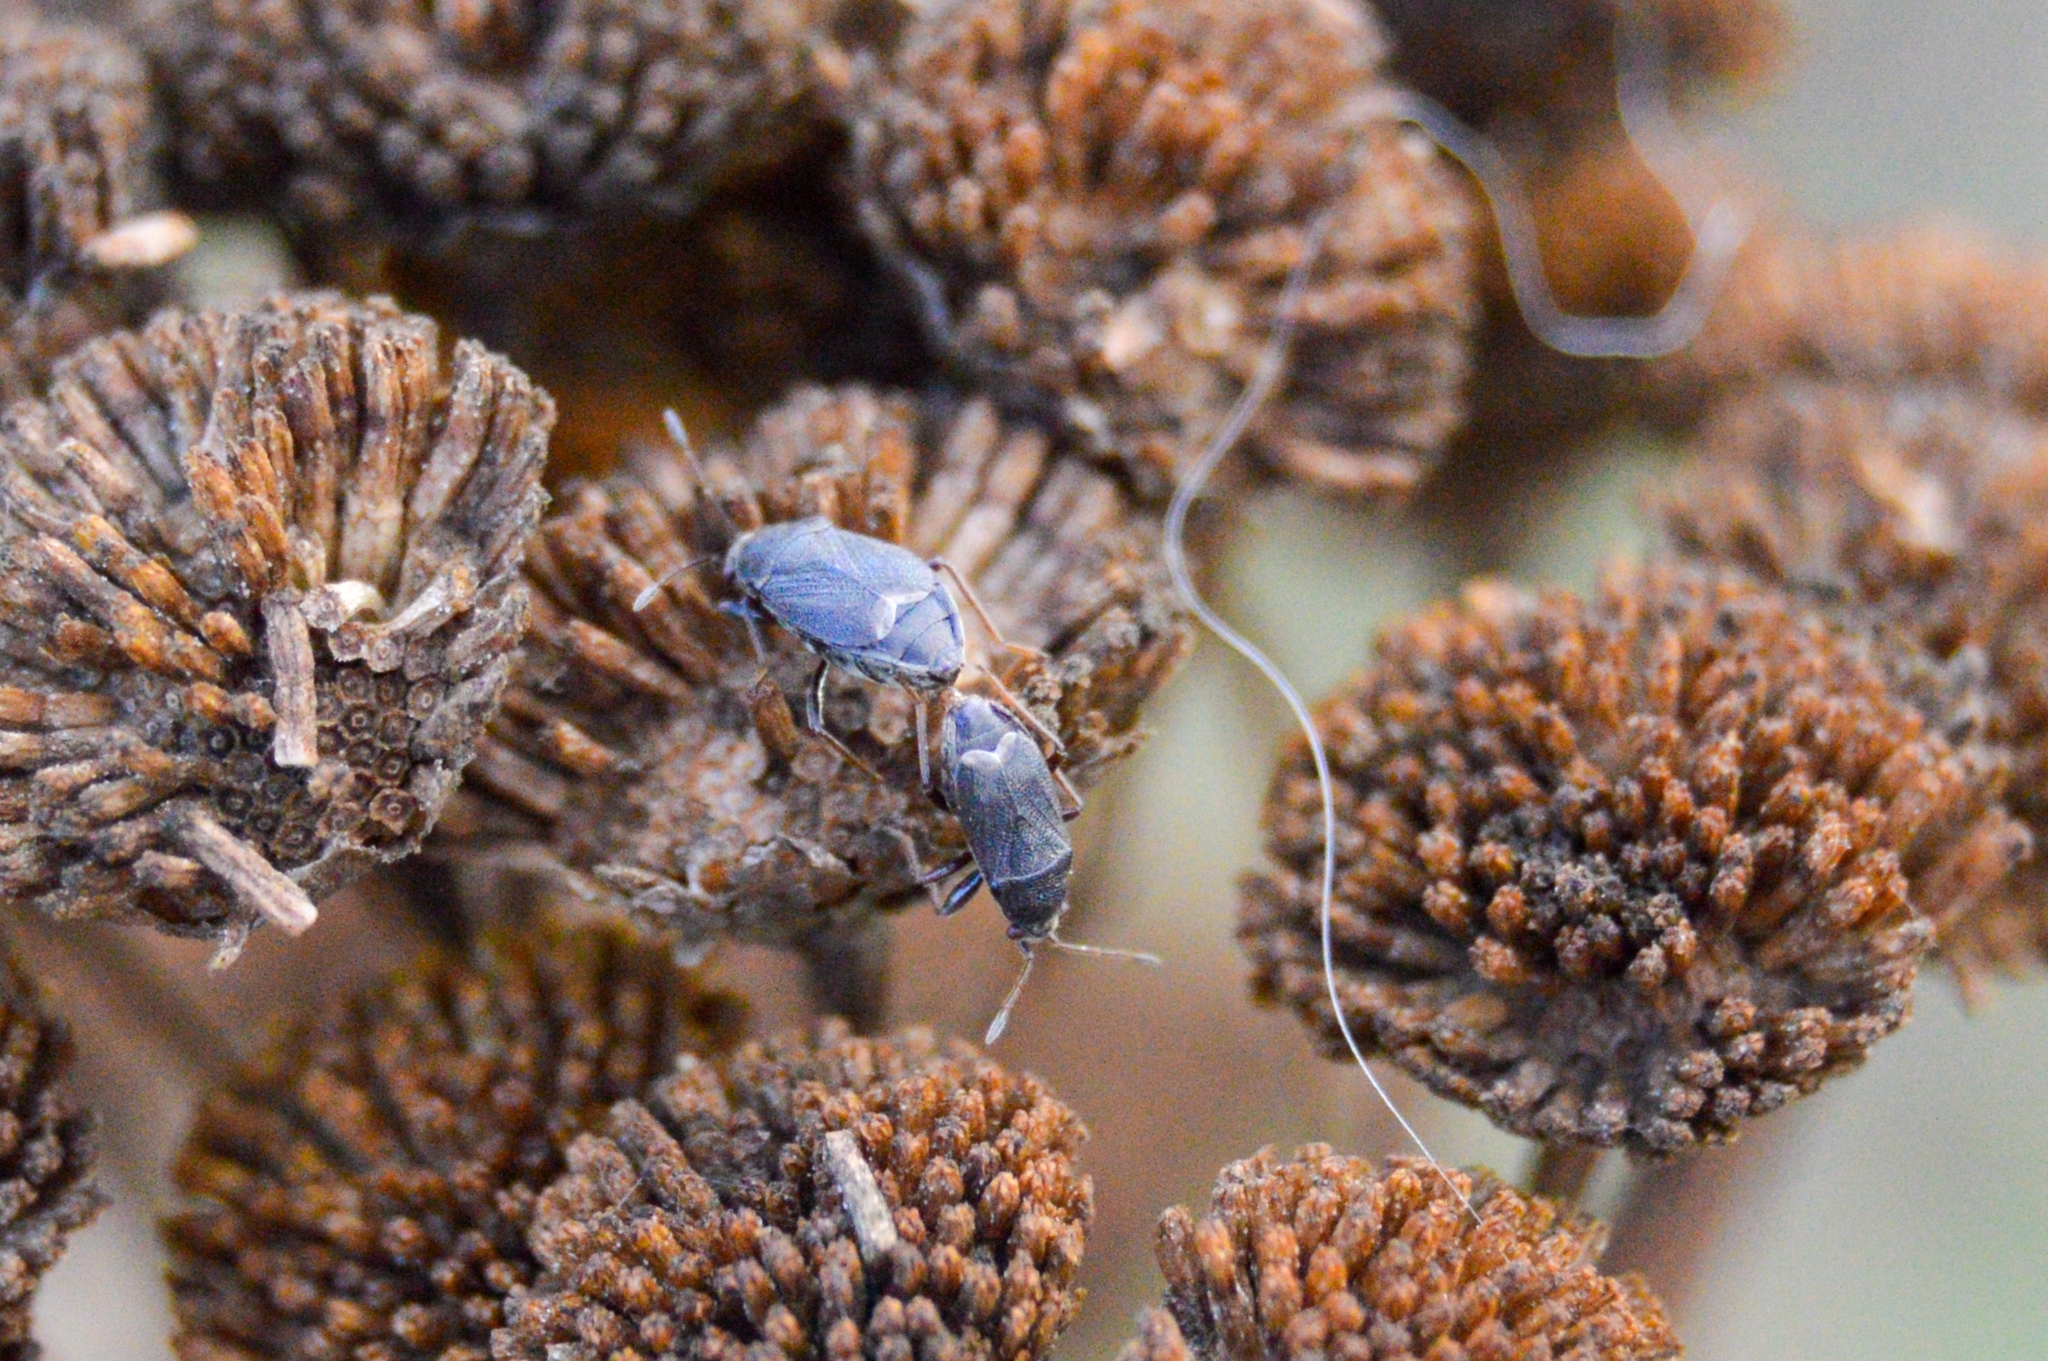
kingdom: Animalia
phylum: Arthropoda
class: Insecta
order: Hemiptera
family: Rhyparochromidae
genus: Stygnocoris
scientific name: Stygnocoris rusticus
